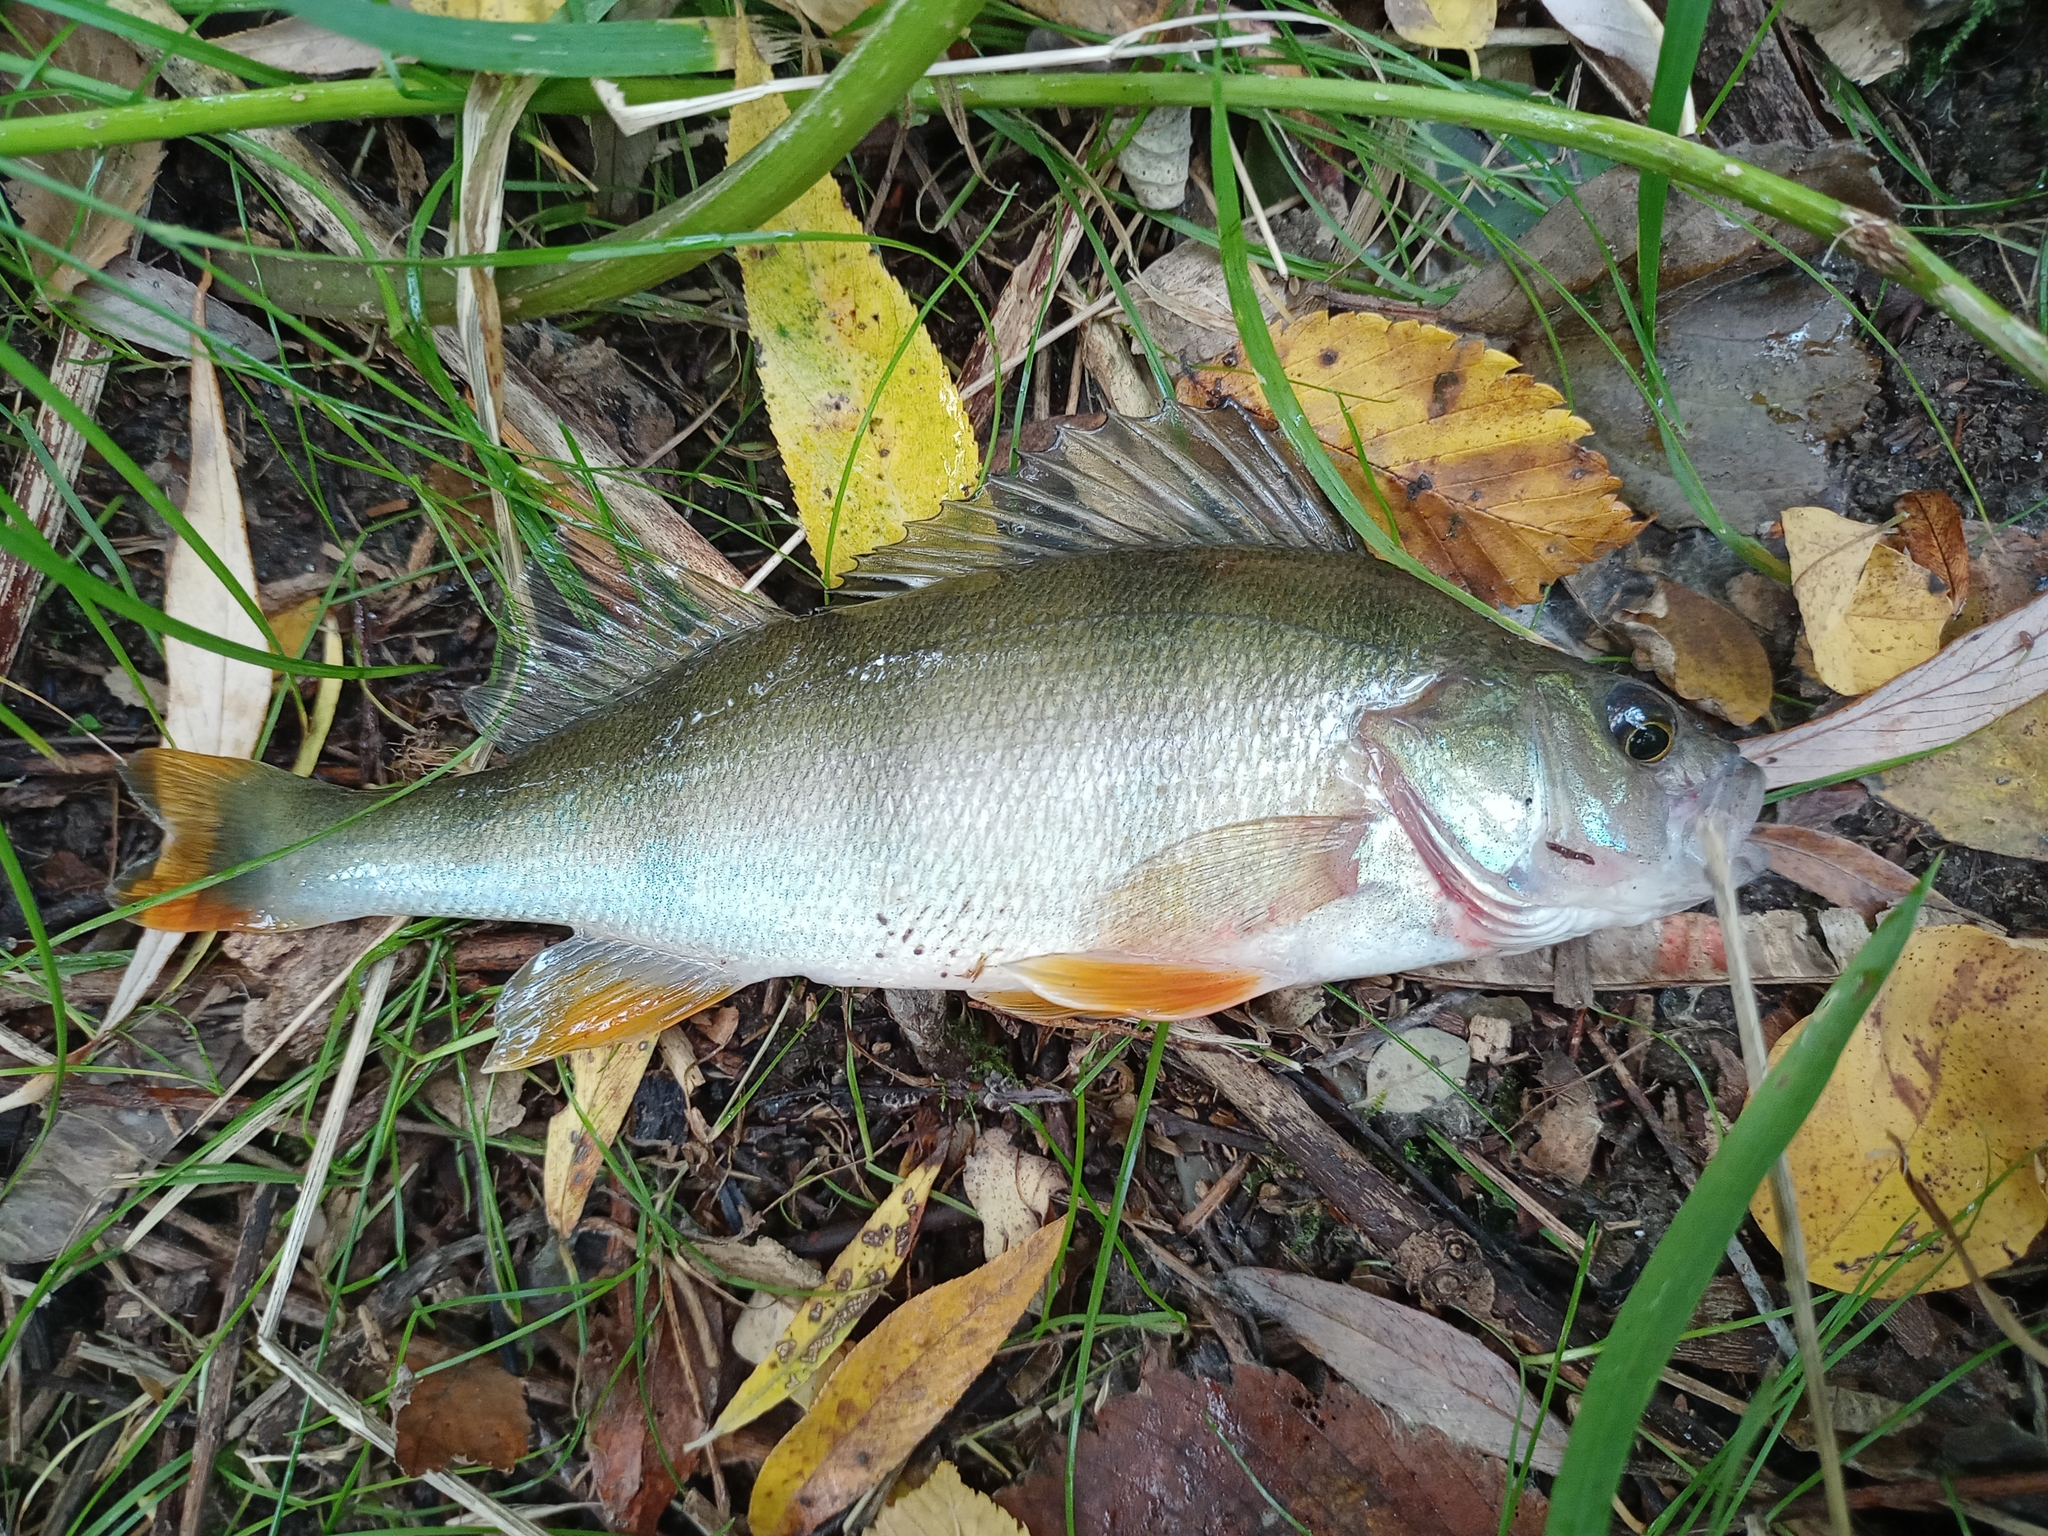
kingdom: Animalia
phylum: Chordata
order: Perciformes
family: Percidae
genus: Perca
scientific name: Perca fluviatilis
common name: Perch
